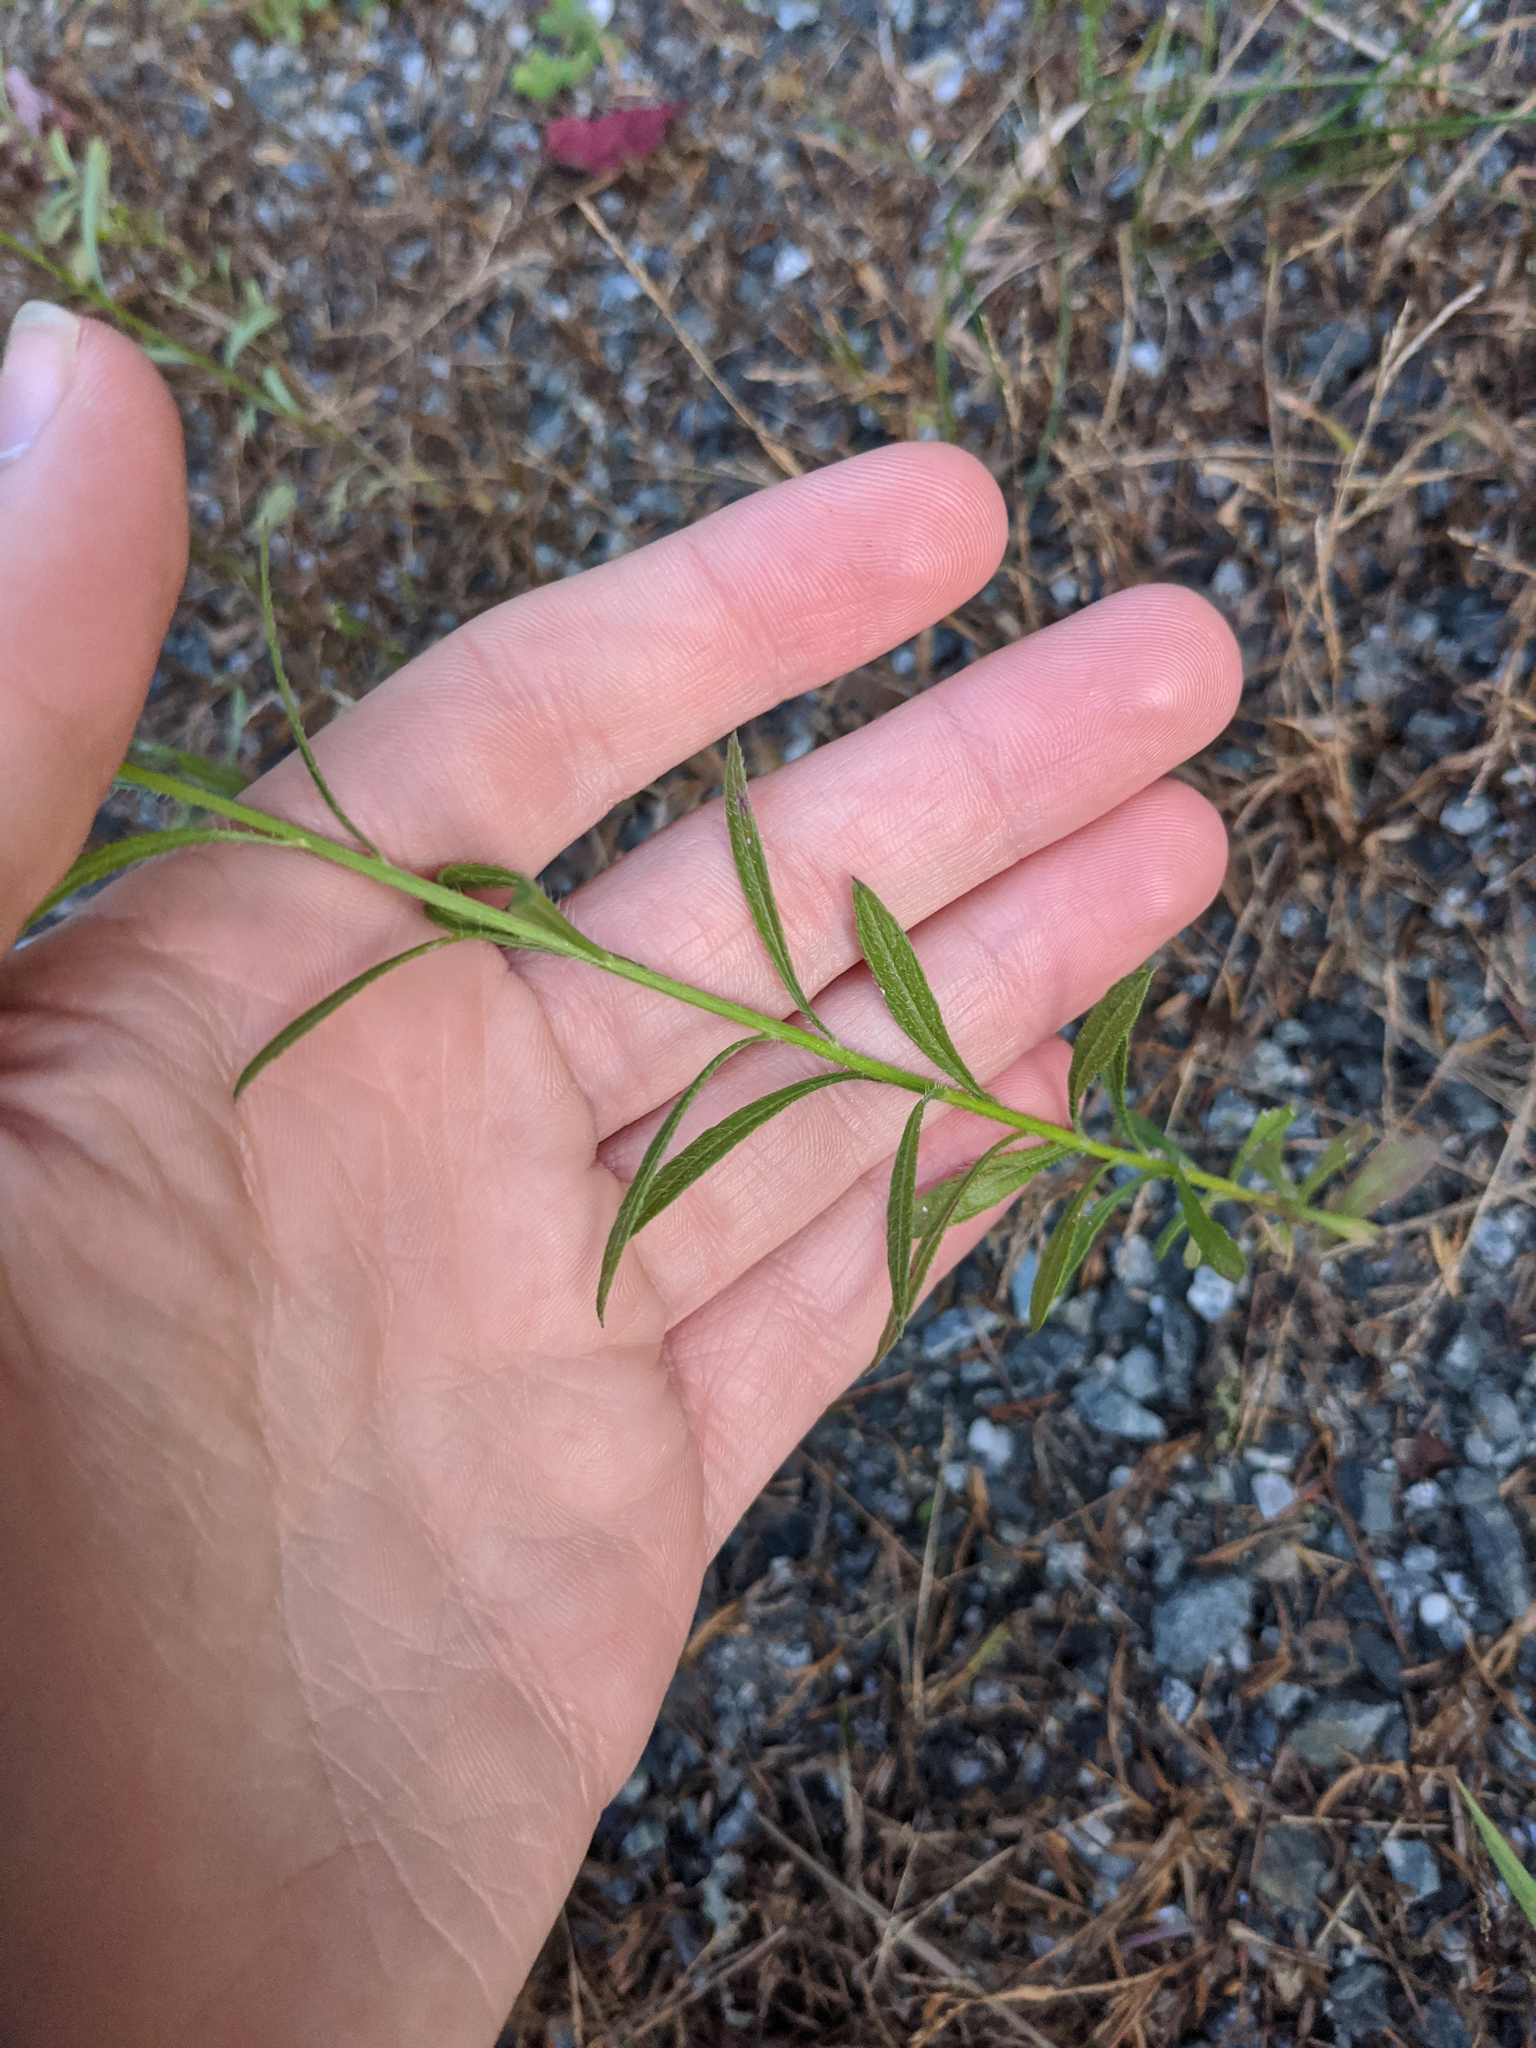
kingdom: Plantae
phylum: Tracheophyta
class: Magnoliopsida
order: Asterales
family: Asteraceae
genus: Erigeron
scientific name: Erigeron canadensis
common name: Canadian fleabane
